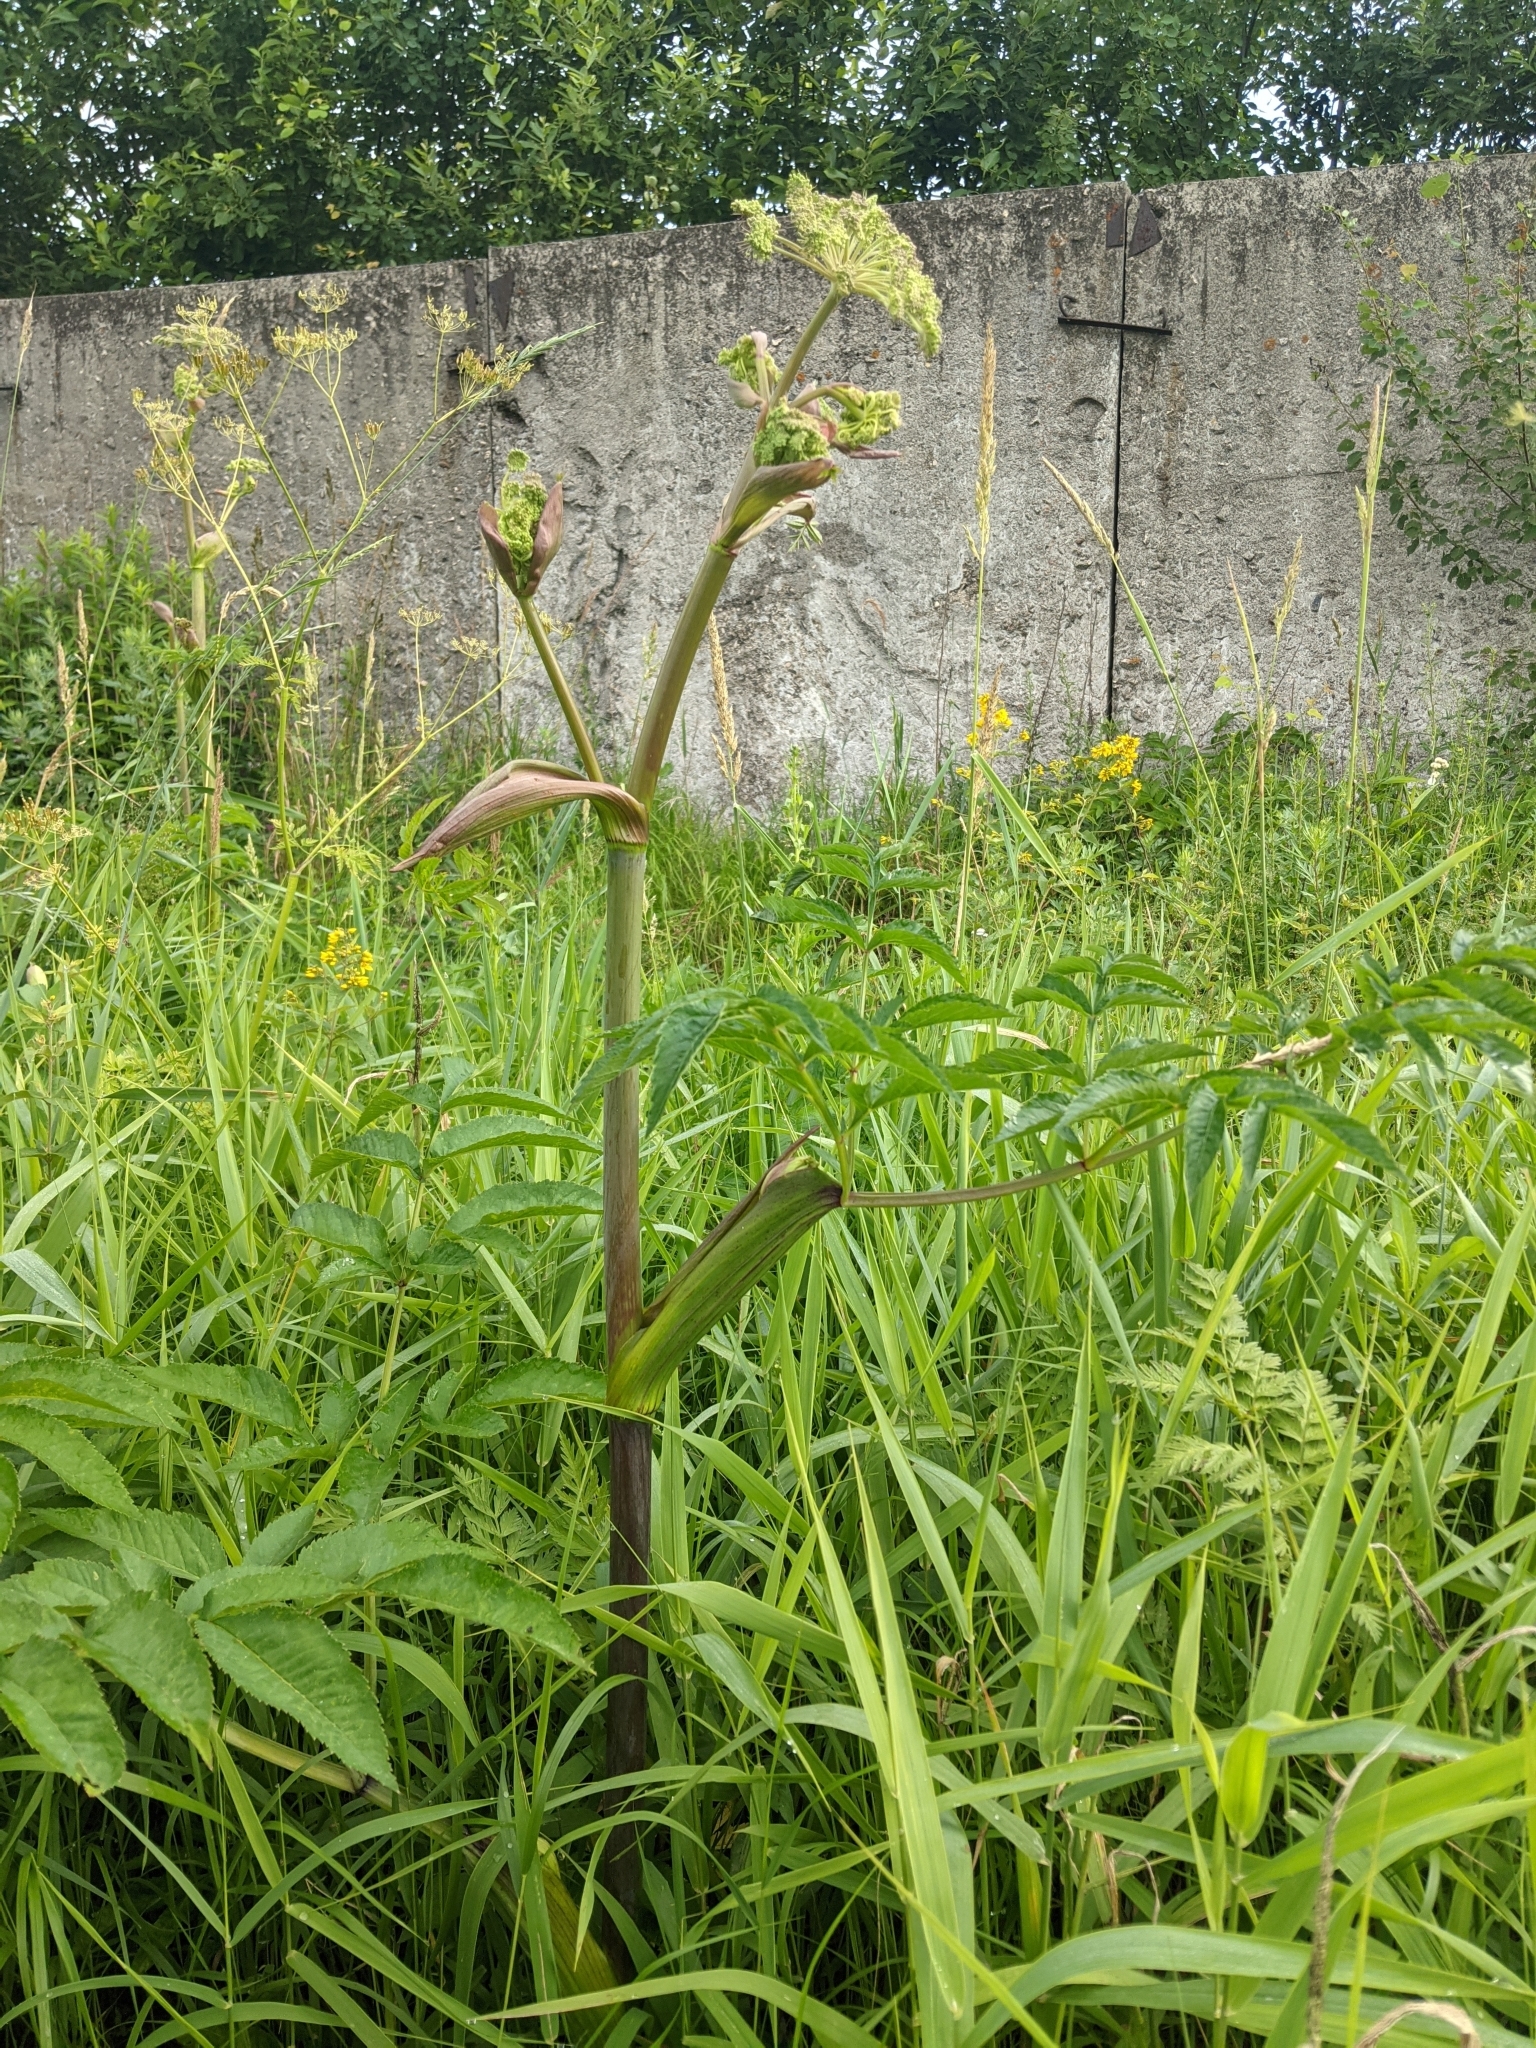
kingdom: Plantae
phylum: Tracheophyta
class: Magnoliopsida
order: Apiales
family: Apiaceae
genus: Angelica
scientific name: Angelica sylvestris
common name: Wild angelica
